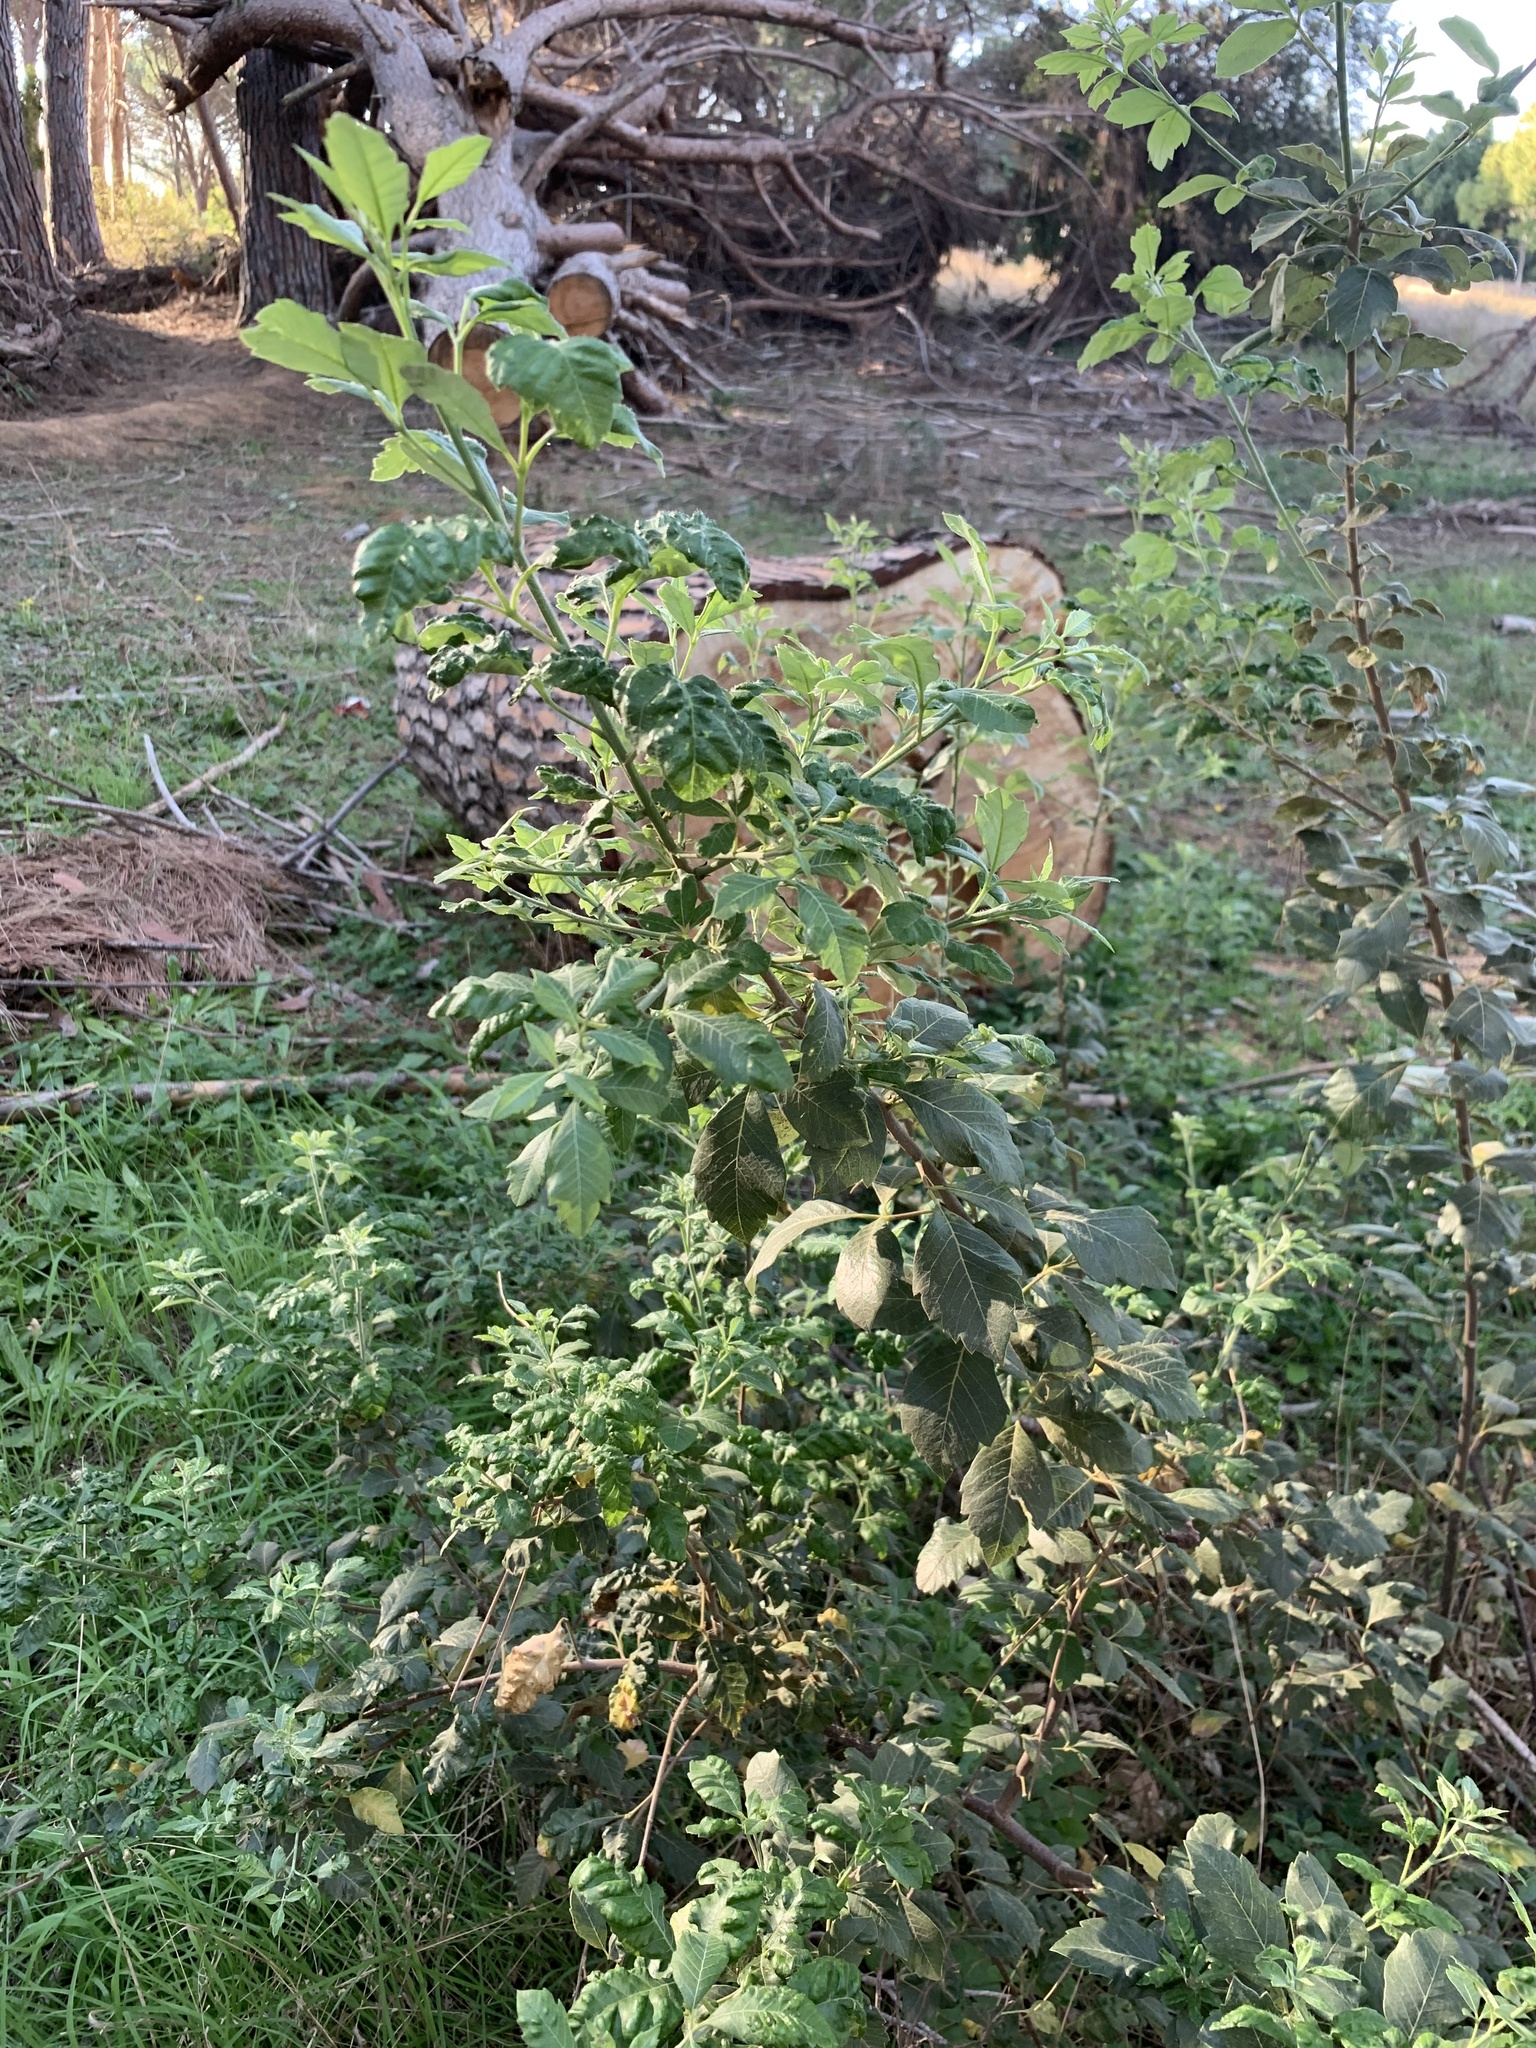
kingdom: Plantae
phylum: Tracheophyta
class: Magnoliopsida
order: Sapindales
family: Anacardiaceae
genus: Searsia
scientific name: Searsia tomentosa
